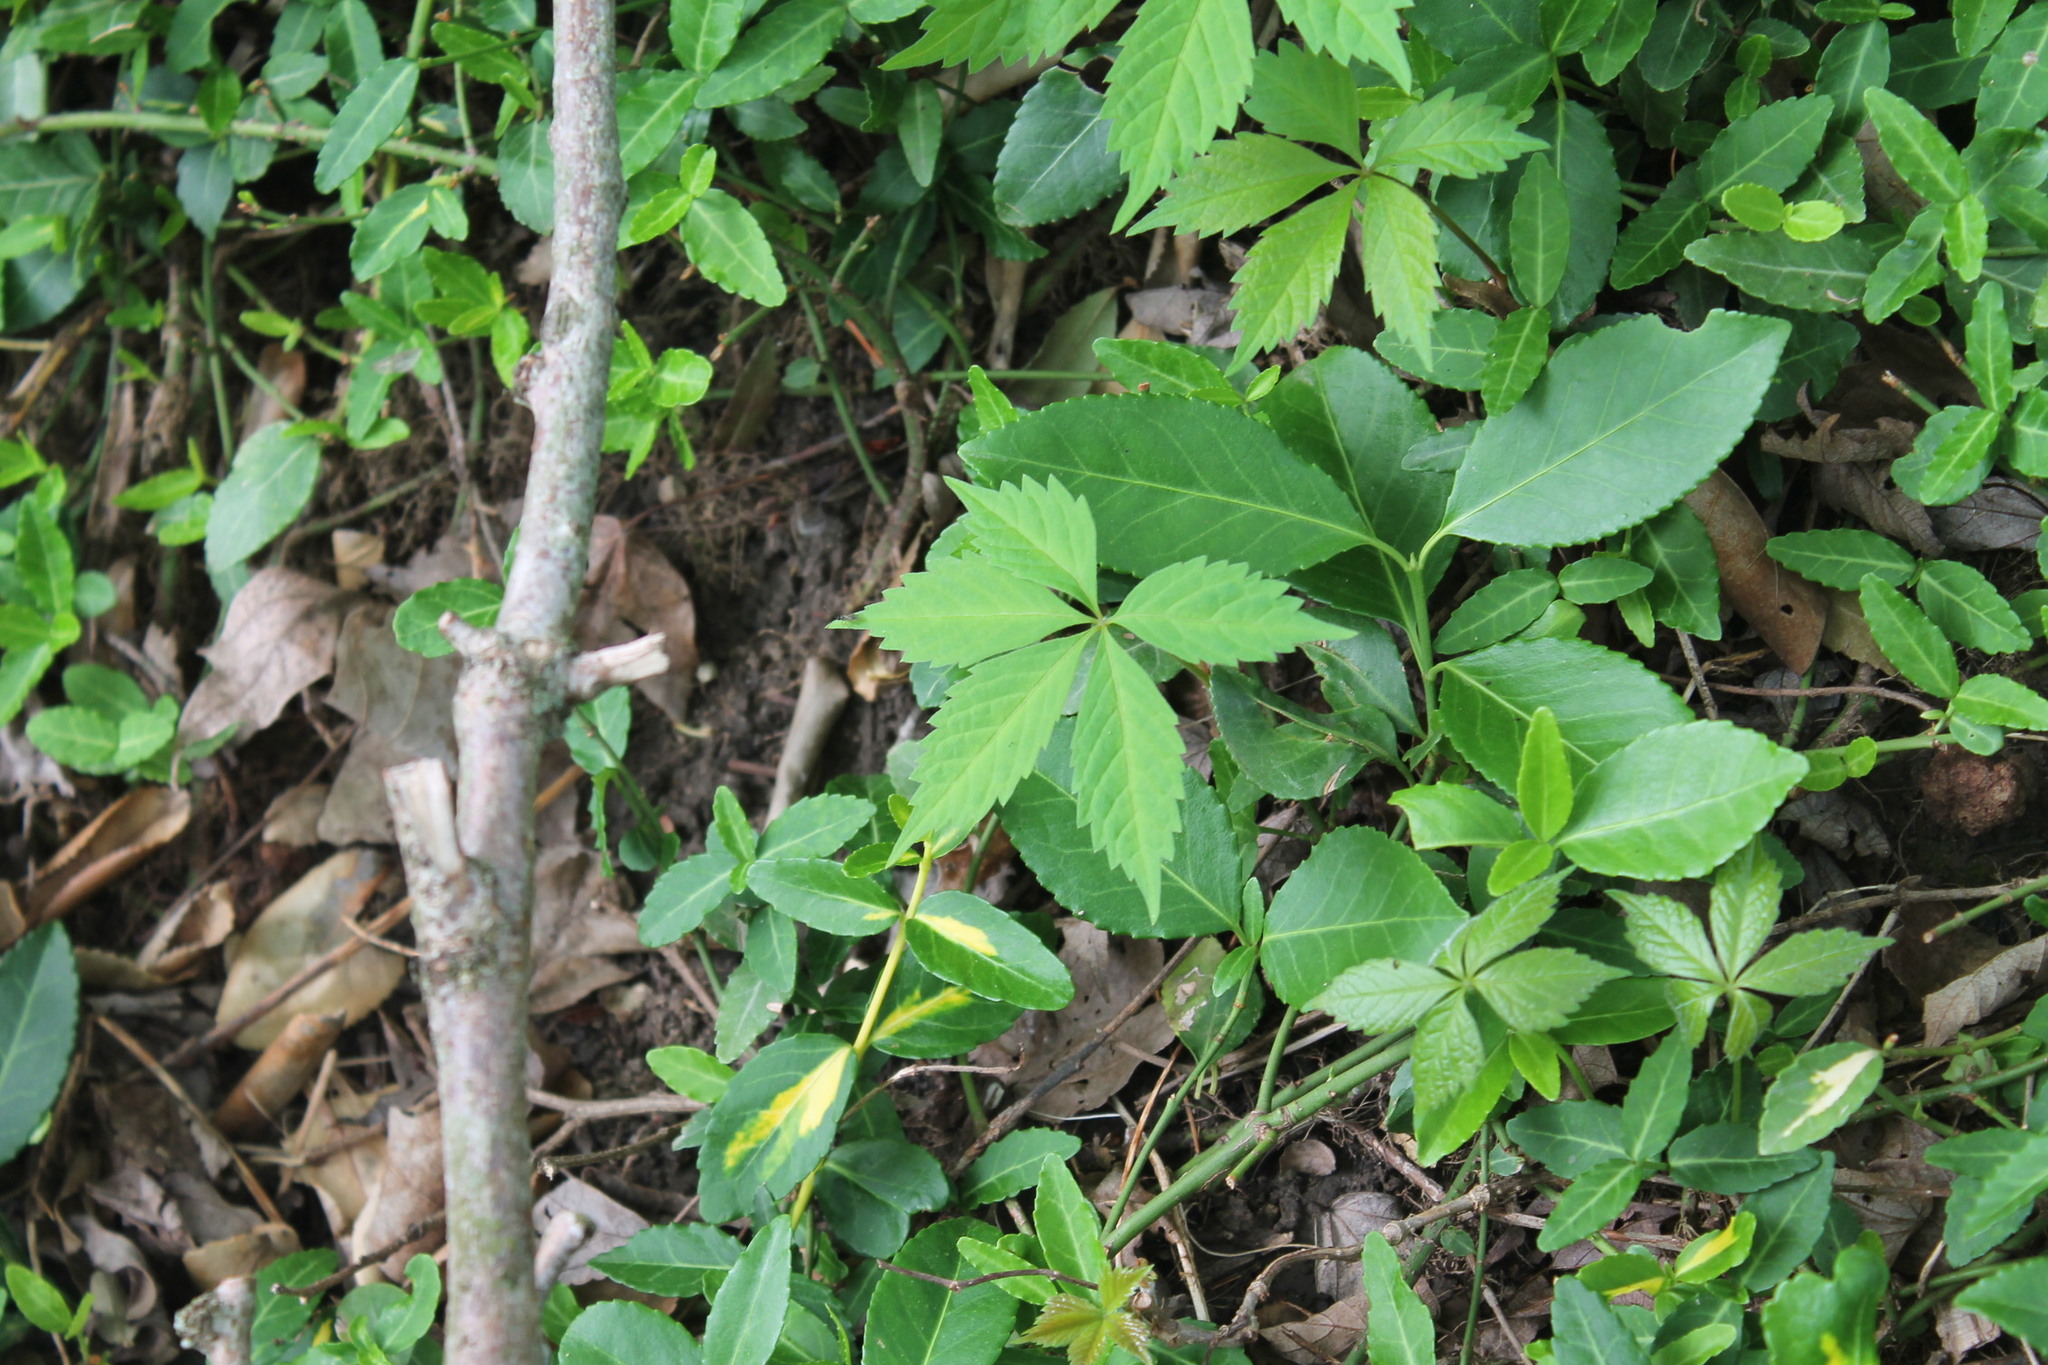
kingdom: Plantae
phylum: Tracheophyta
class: Magnoliopsida
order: Vitales
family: Vitaceae
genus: Parthenocissus
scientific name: Parthenocissus quinquefolia
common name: Virginia-creeper
